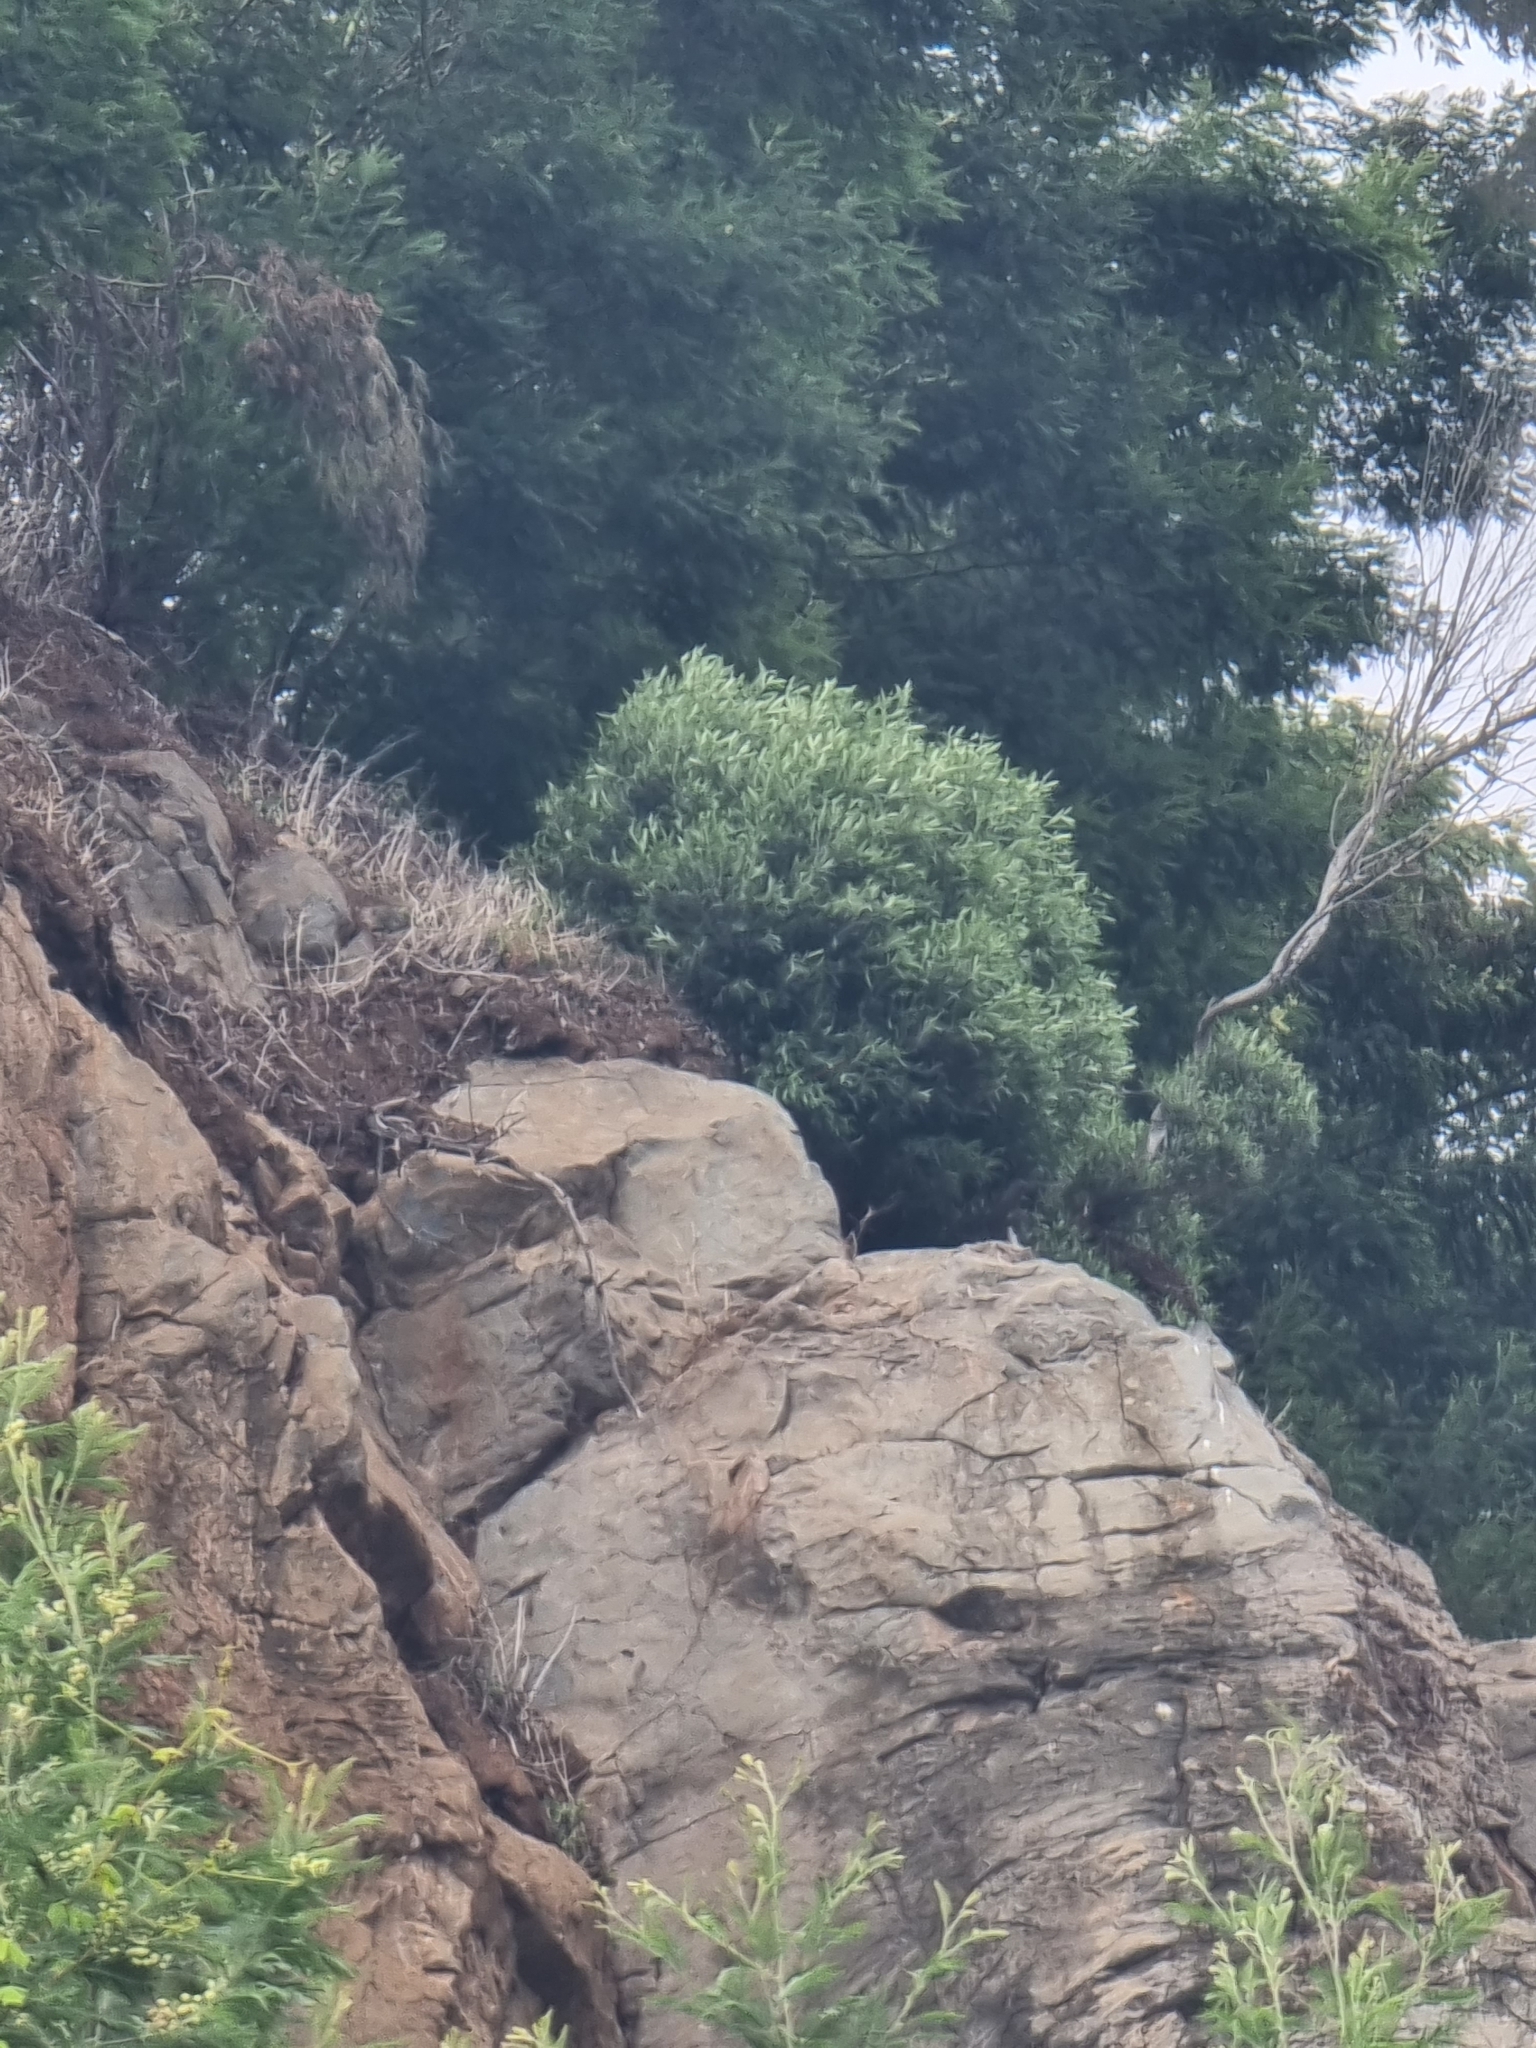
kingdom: Plantae
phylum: Tracheophyta
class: Magnoliopsida
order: Lamiales
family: Oleaceae
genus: Olea
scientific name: Olea europaea
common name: Olive
